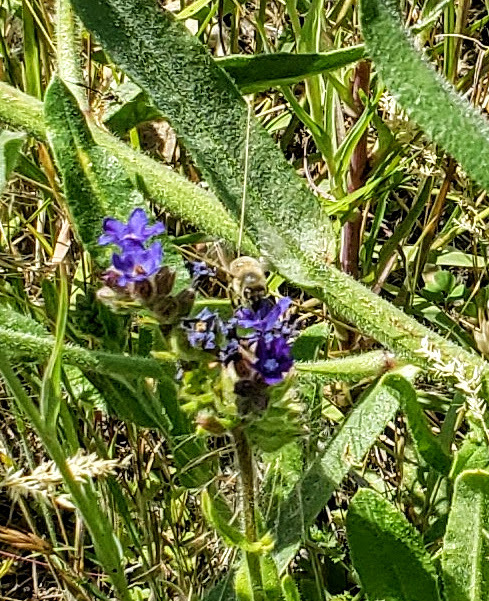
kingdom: Animalia
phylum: Arthropoda
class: Insecta
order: Hymenoptera
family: Apidae
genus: Apis
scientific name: Apis mellifera
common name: Honey bee
